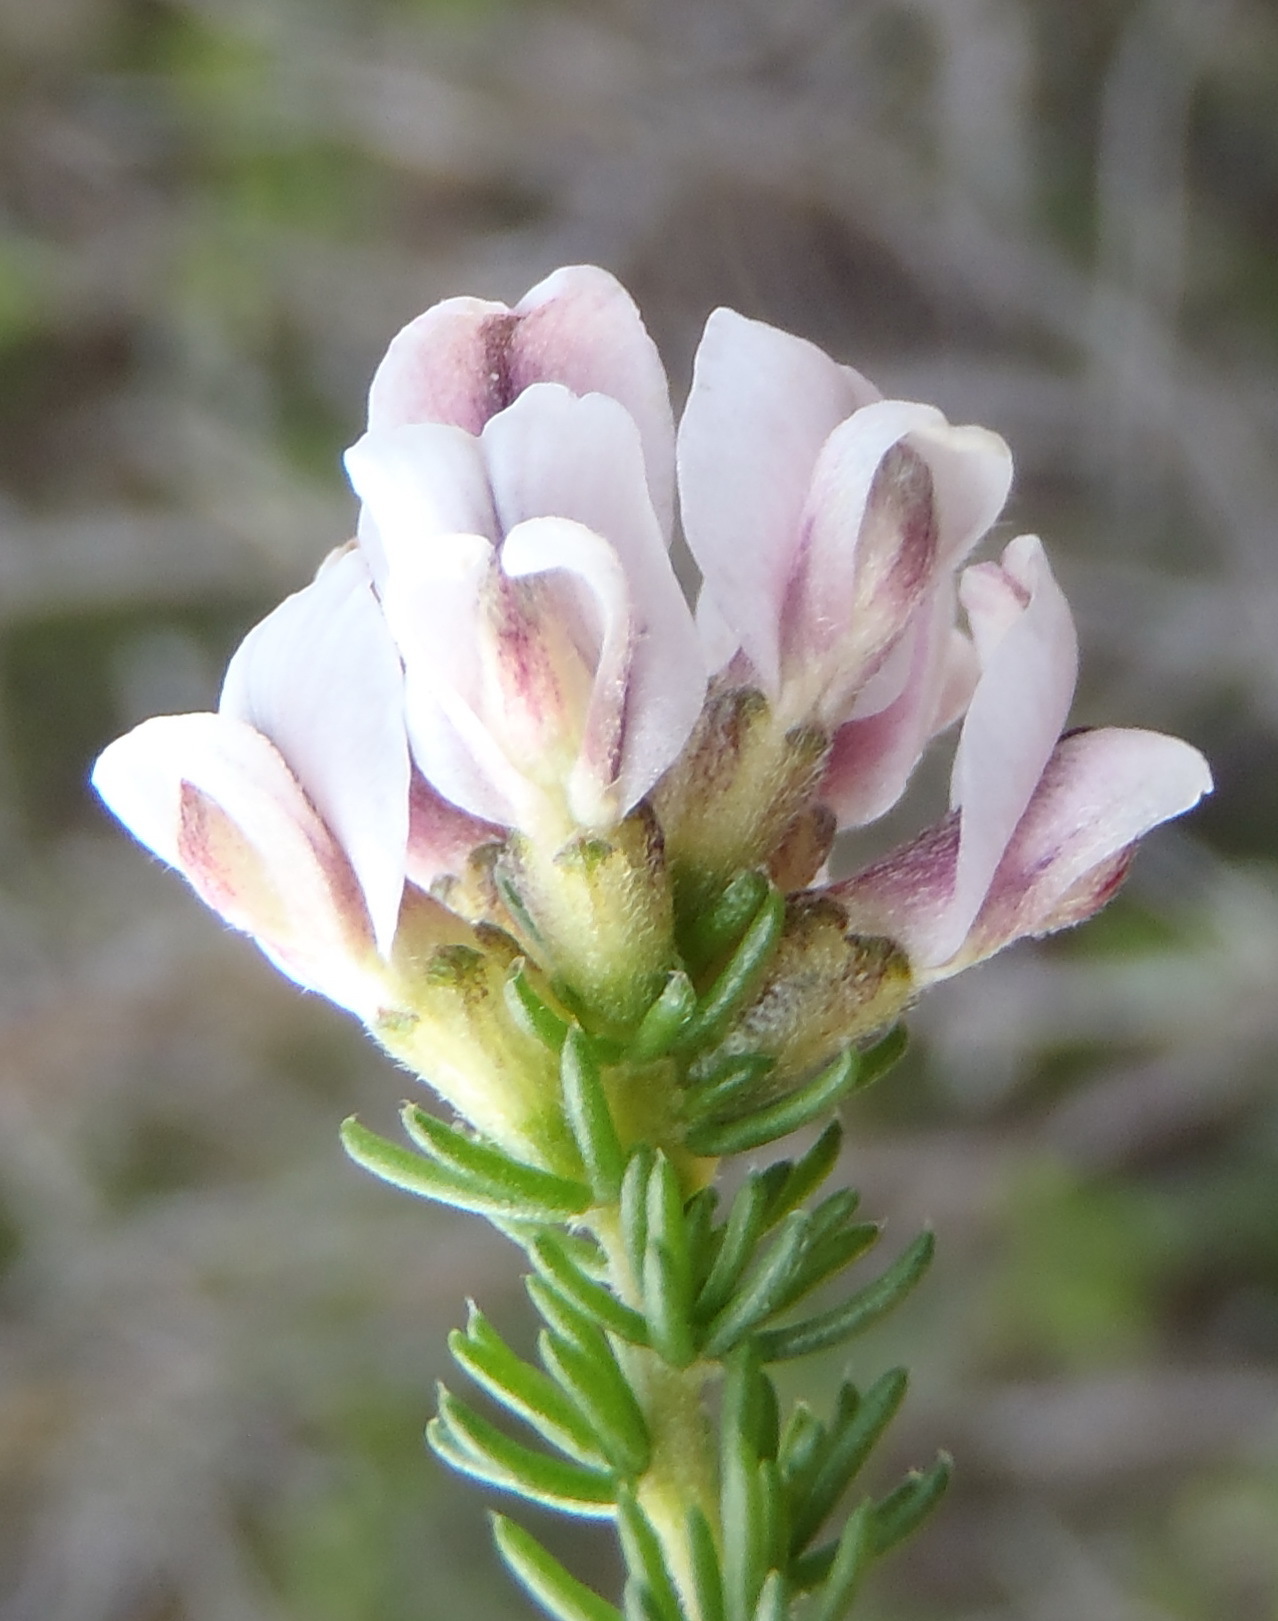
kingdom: Plantae
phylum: Tracheophyta
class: Magnoliopsida
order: Fabales
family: Fabaceae
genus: Aspalathus
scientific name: Aspalathus nigra
